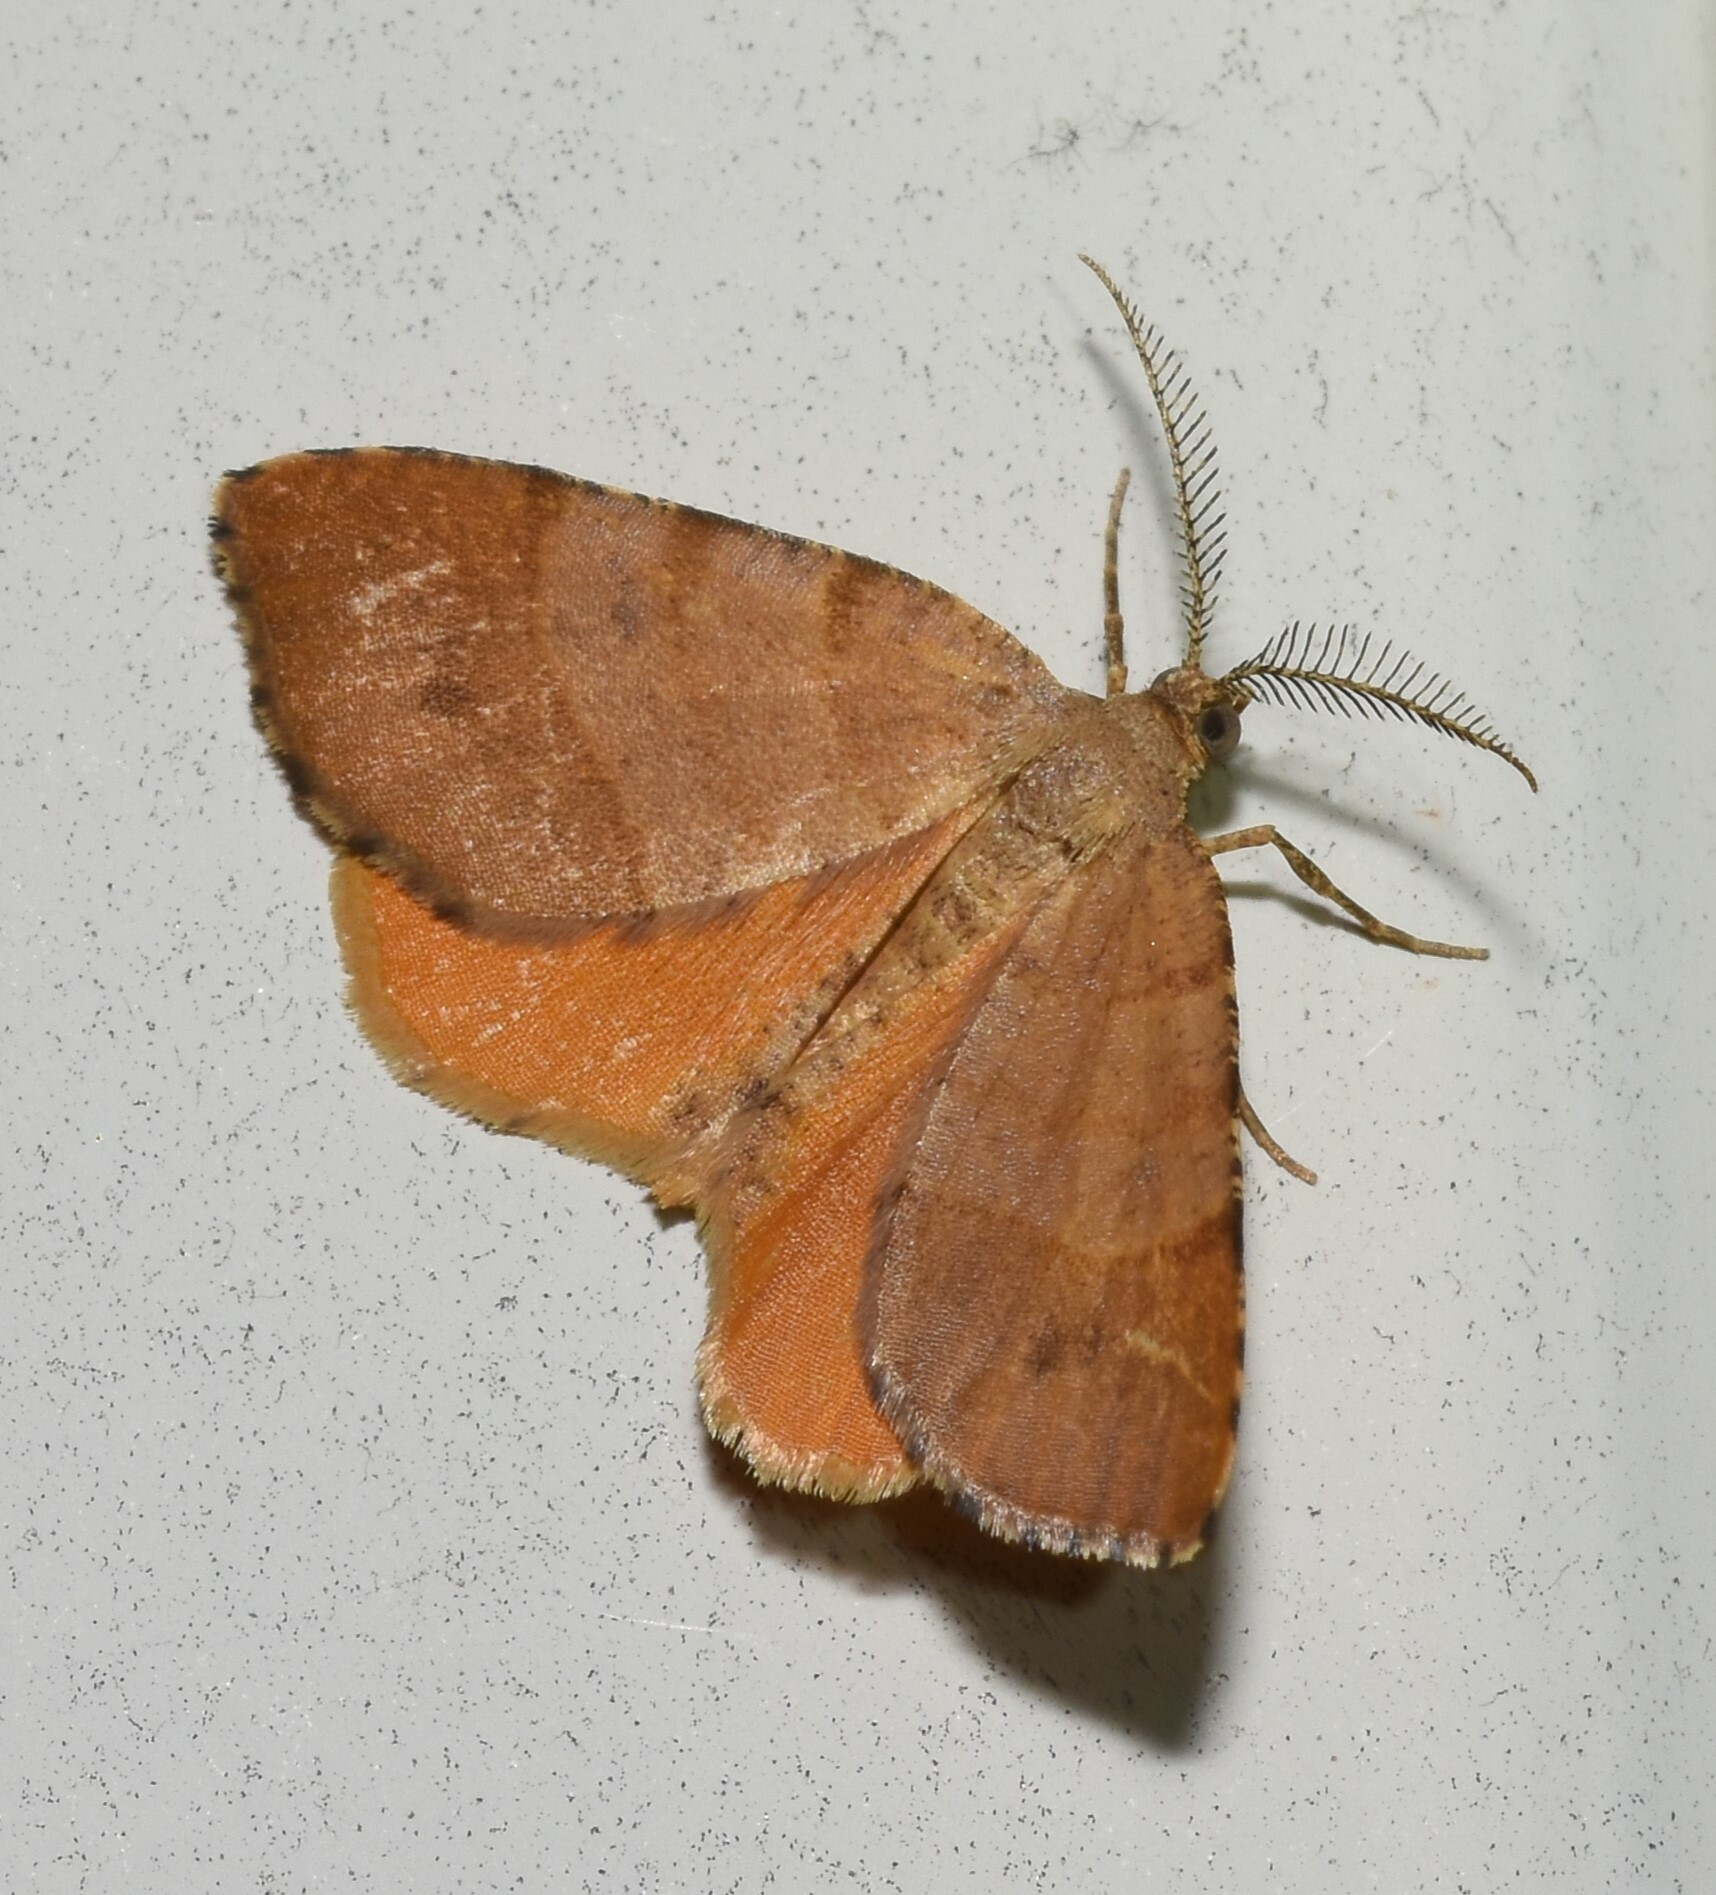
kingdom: Animalia
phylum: Arthropoda
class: Insecta
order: Lepidoptera
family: Geometridae
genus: Mellilla
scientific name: Mellilla xanthometata
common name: Orange wing moth
